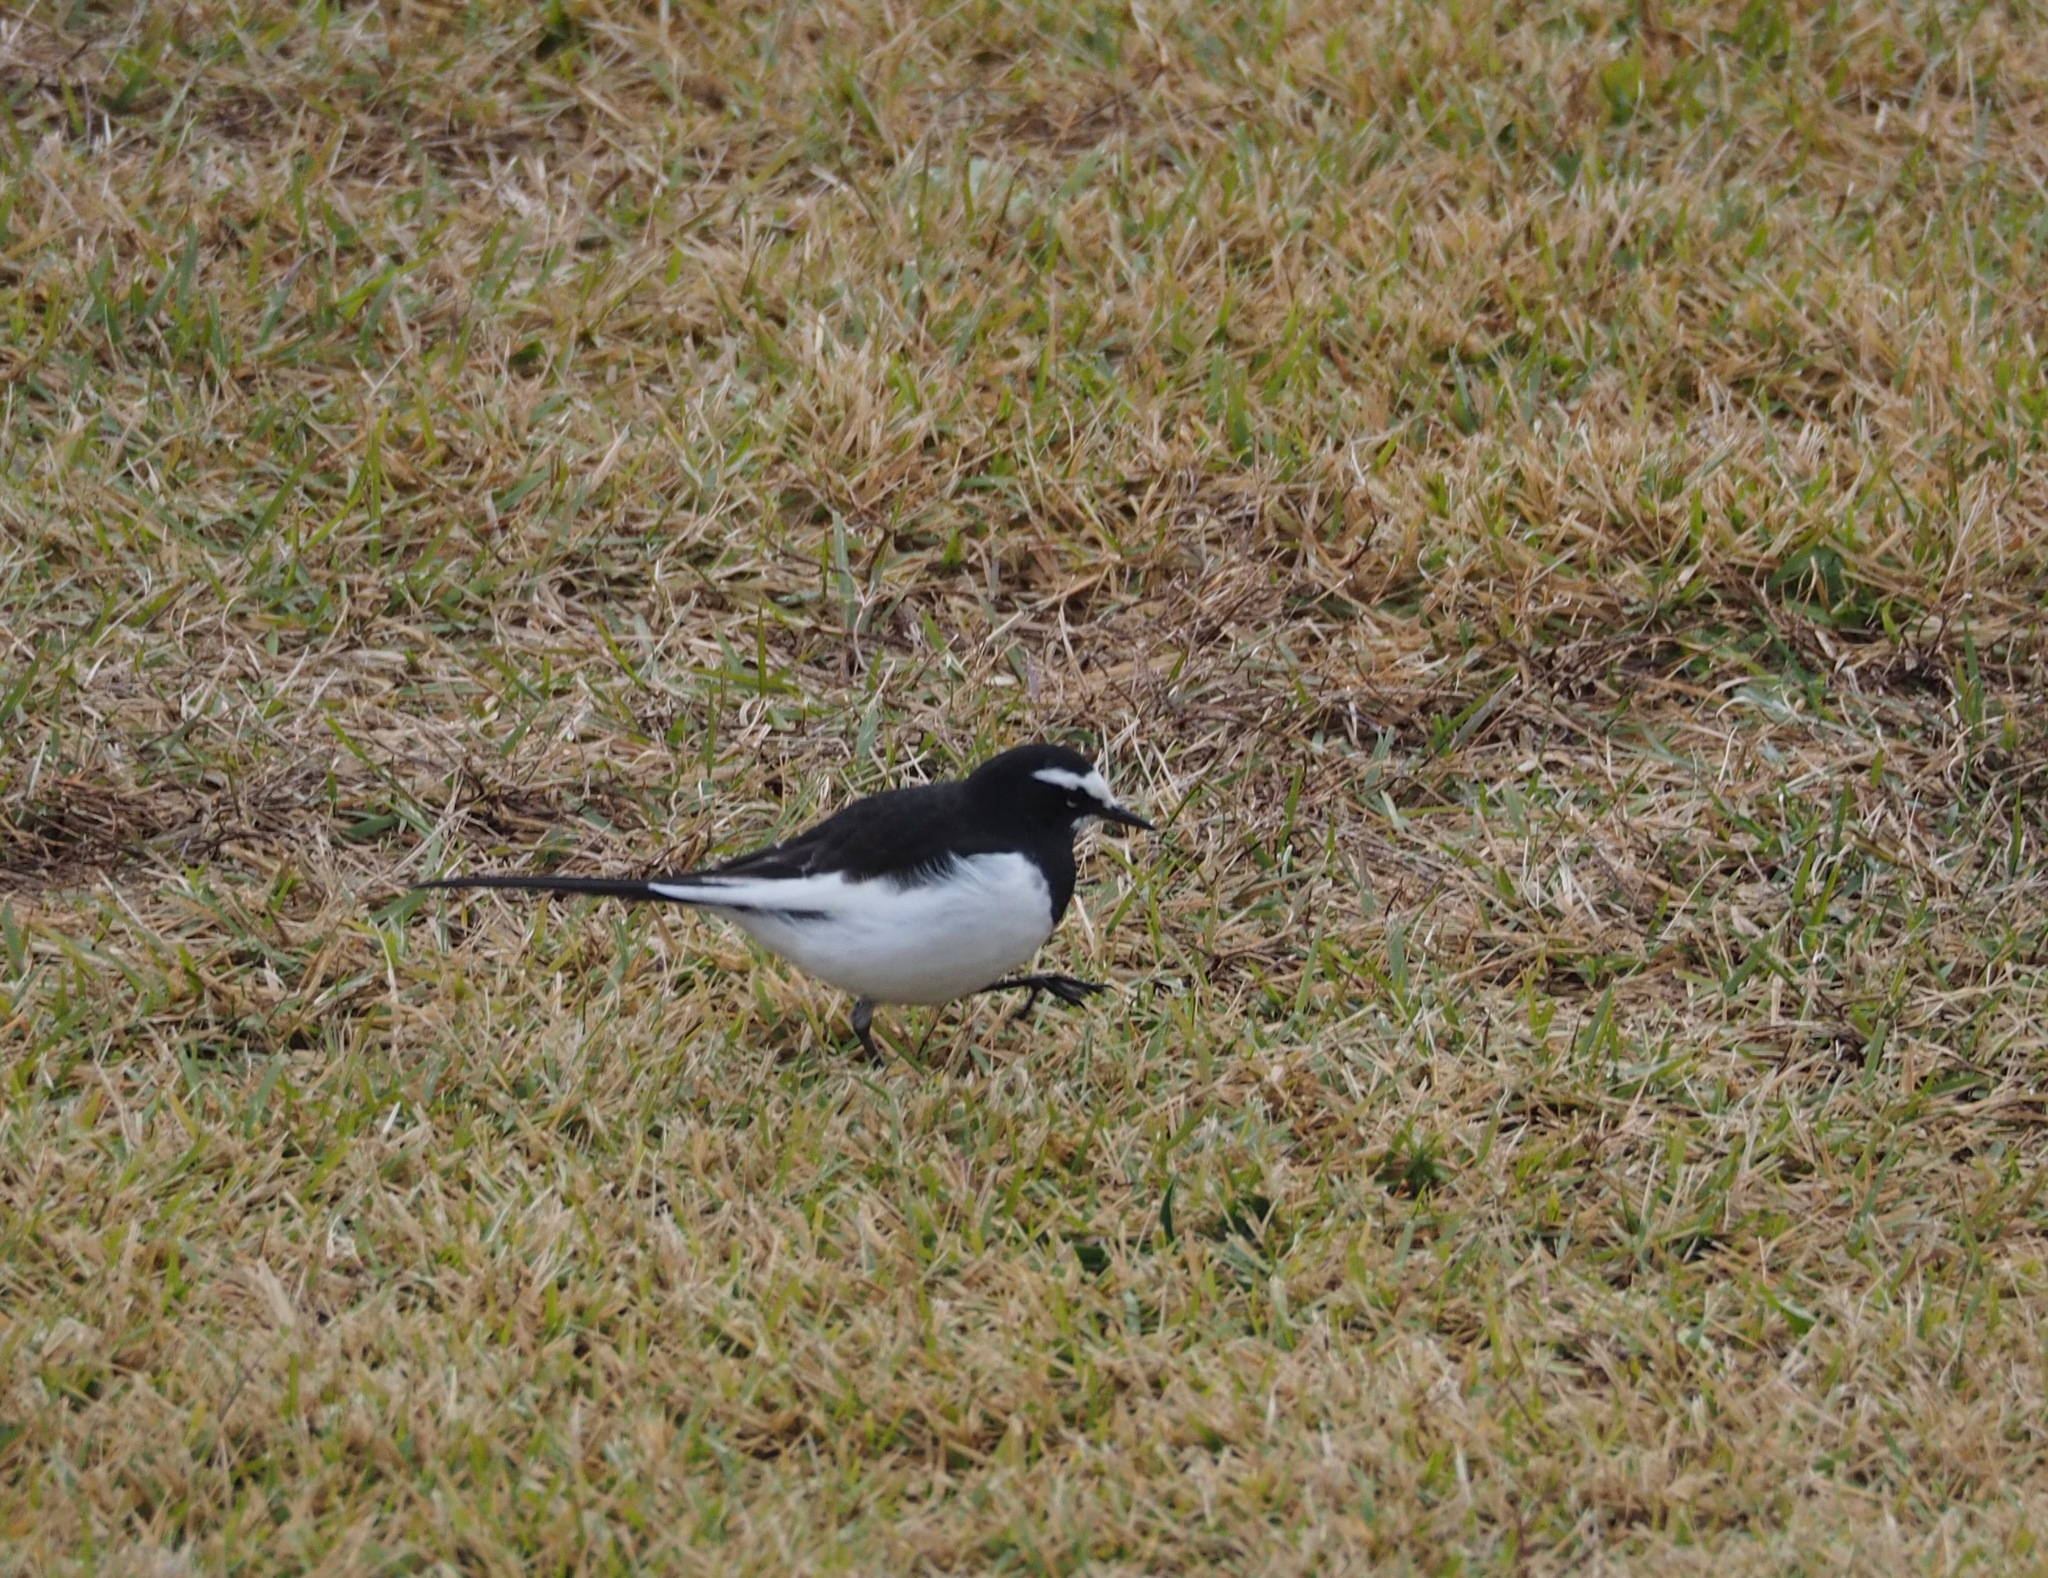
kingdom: Animalia
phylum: Chordata
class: Aves
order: Passeriformes
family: Motacillidae
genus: Motacilla
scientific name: Motacilla grandis
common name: Japanese wagtail
